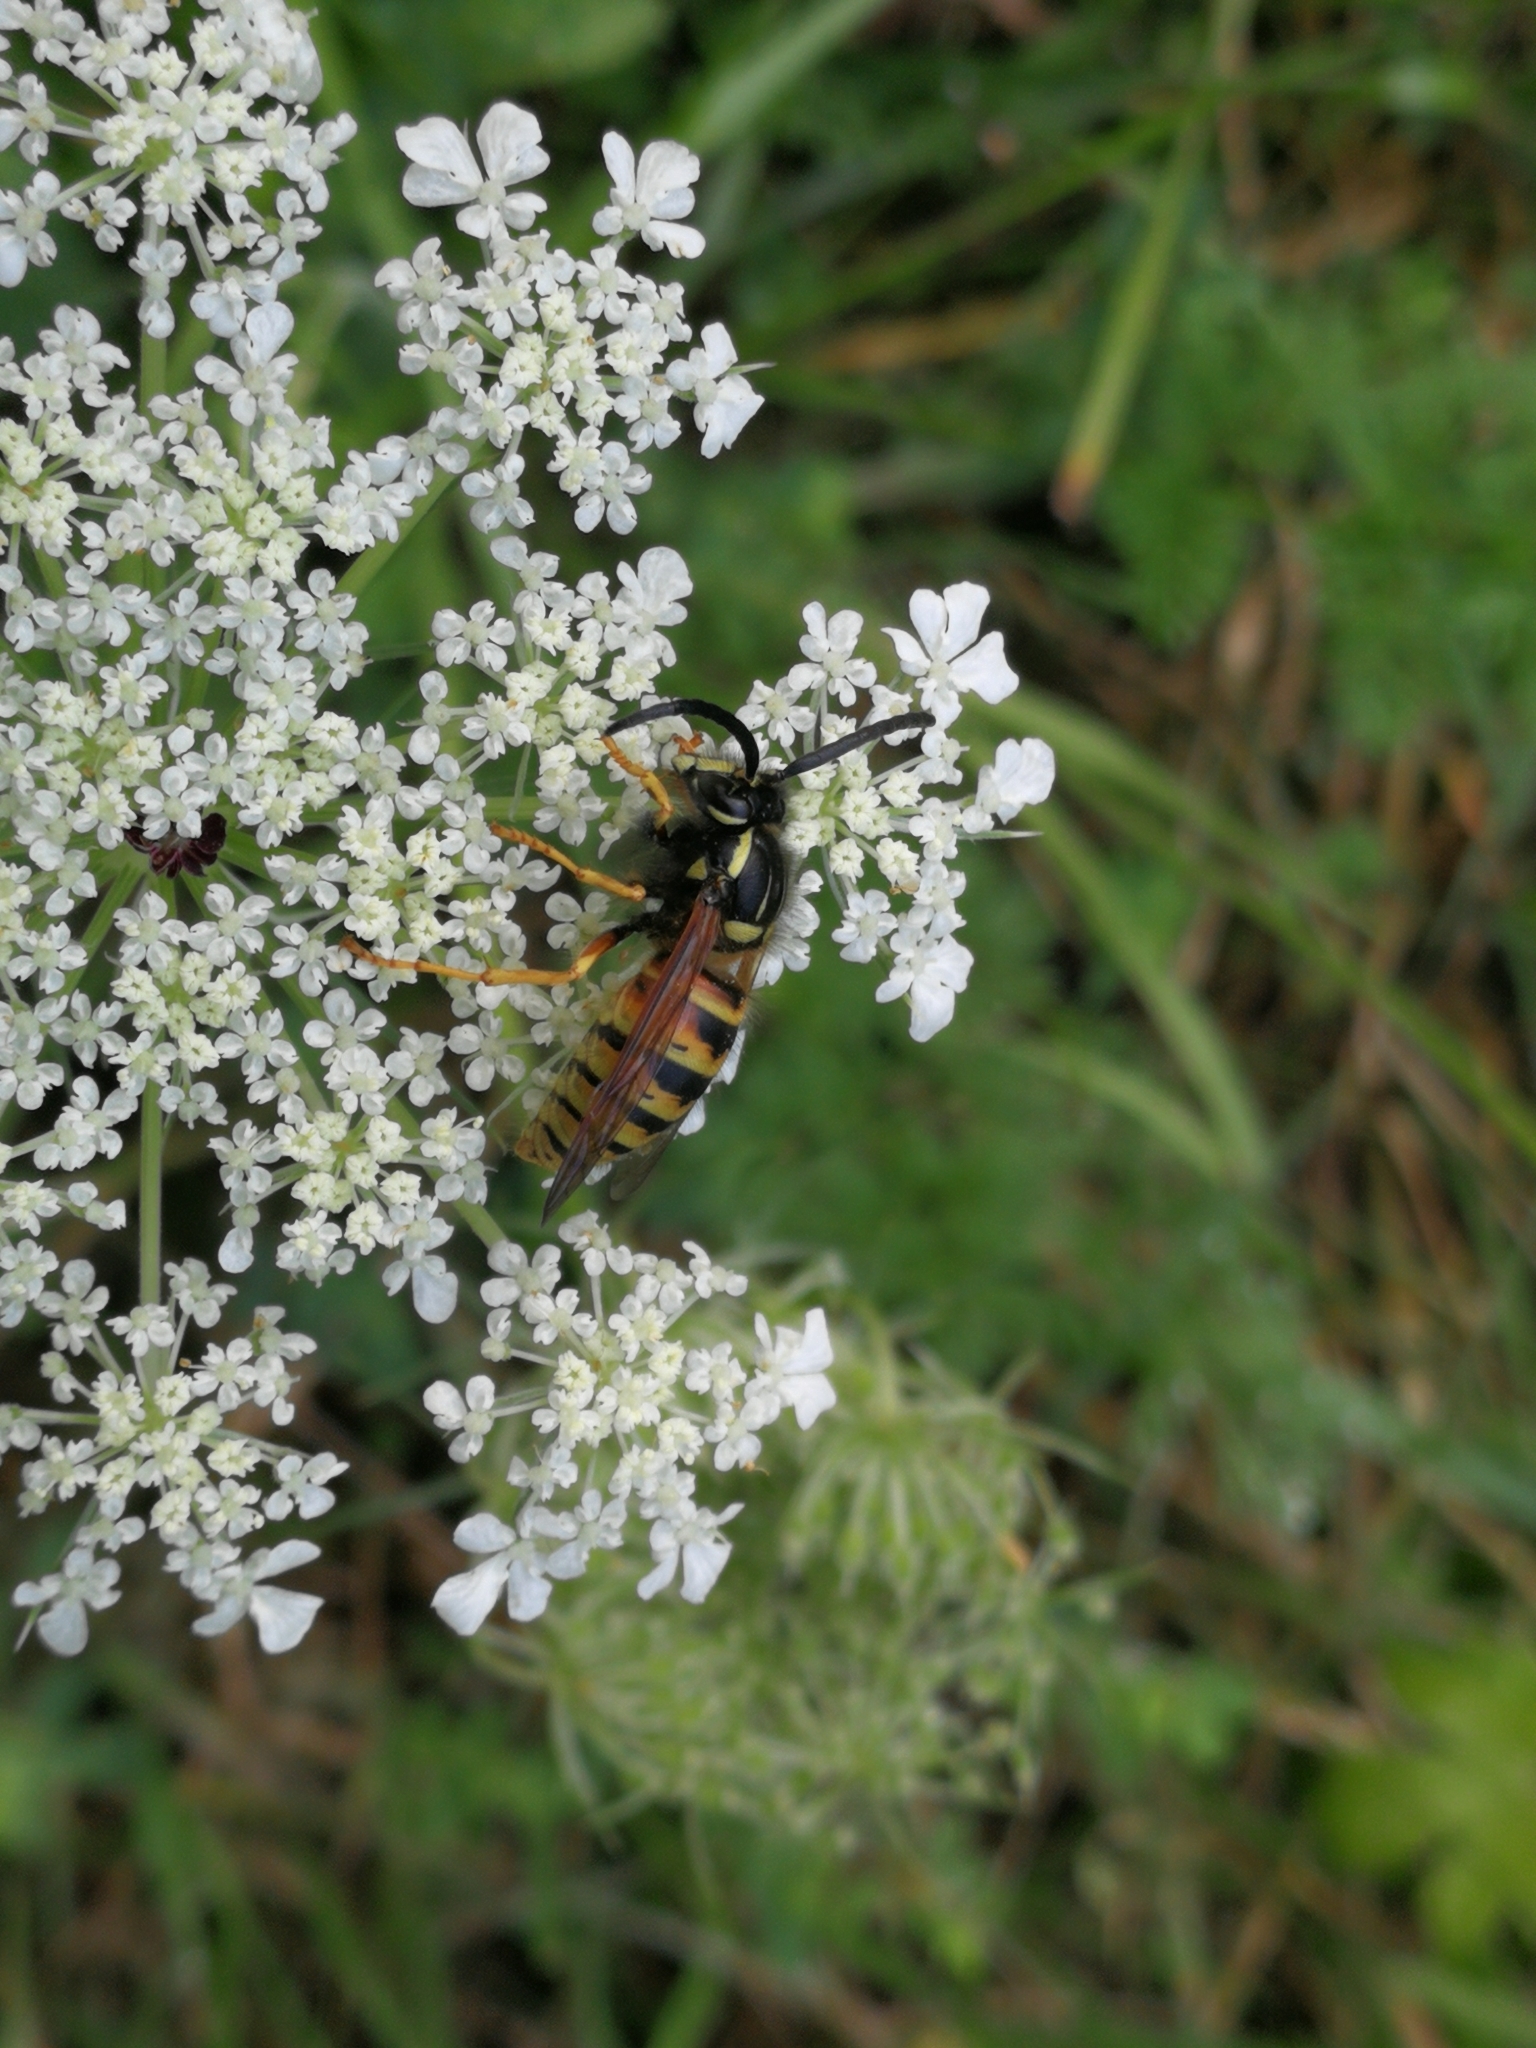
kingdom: Animalia
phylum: Arthropoda
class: Insecta
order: Hymenoptera
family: Vespidae
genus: Dolichovespula
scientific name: Dolichovespula norwegica
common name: Norwegian wasp
